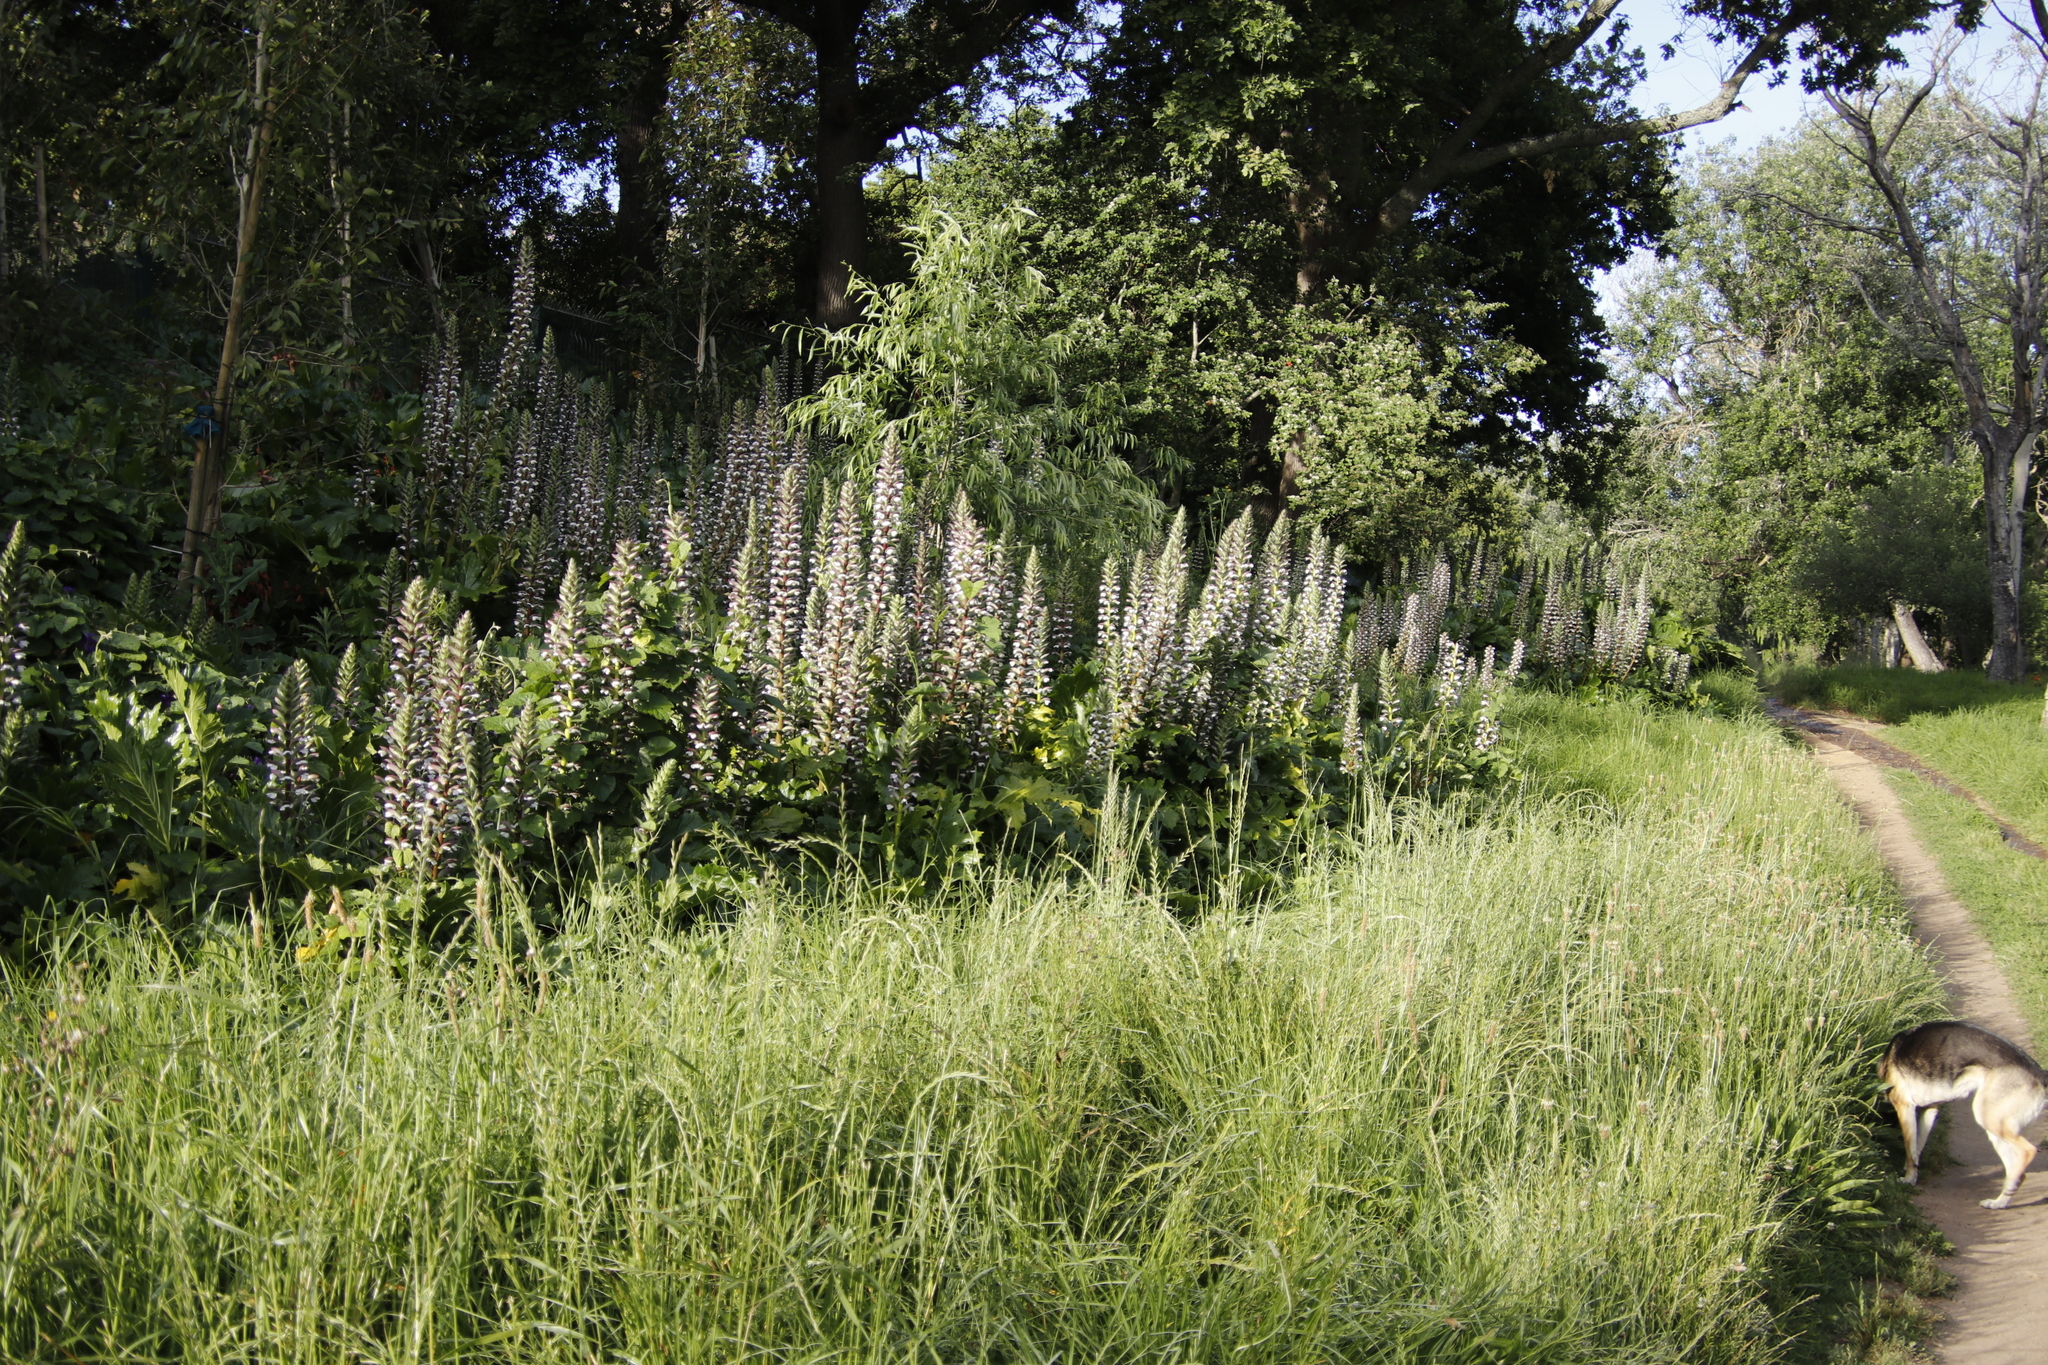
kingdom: Plantae
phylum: Tracheophyta
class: Magnoliopsida
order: Lamiales
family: Acanthaceae
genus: Acanthus
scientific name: Acanthus mollis
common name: Bear's-breech
